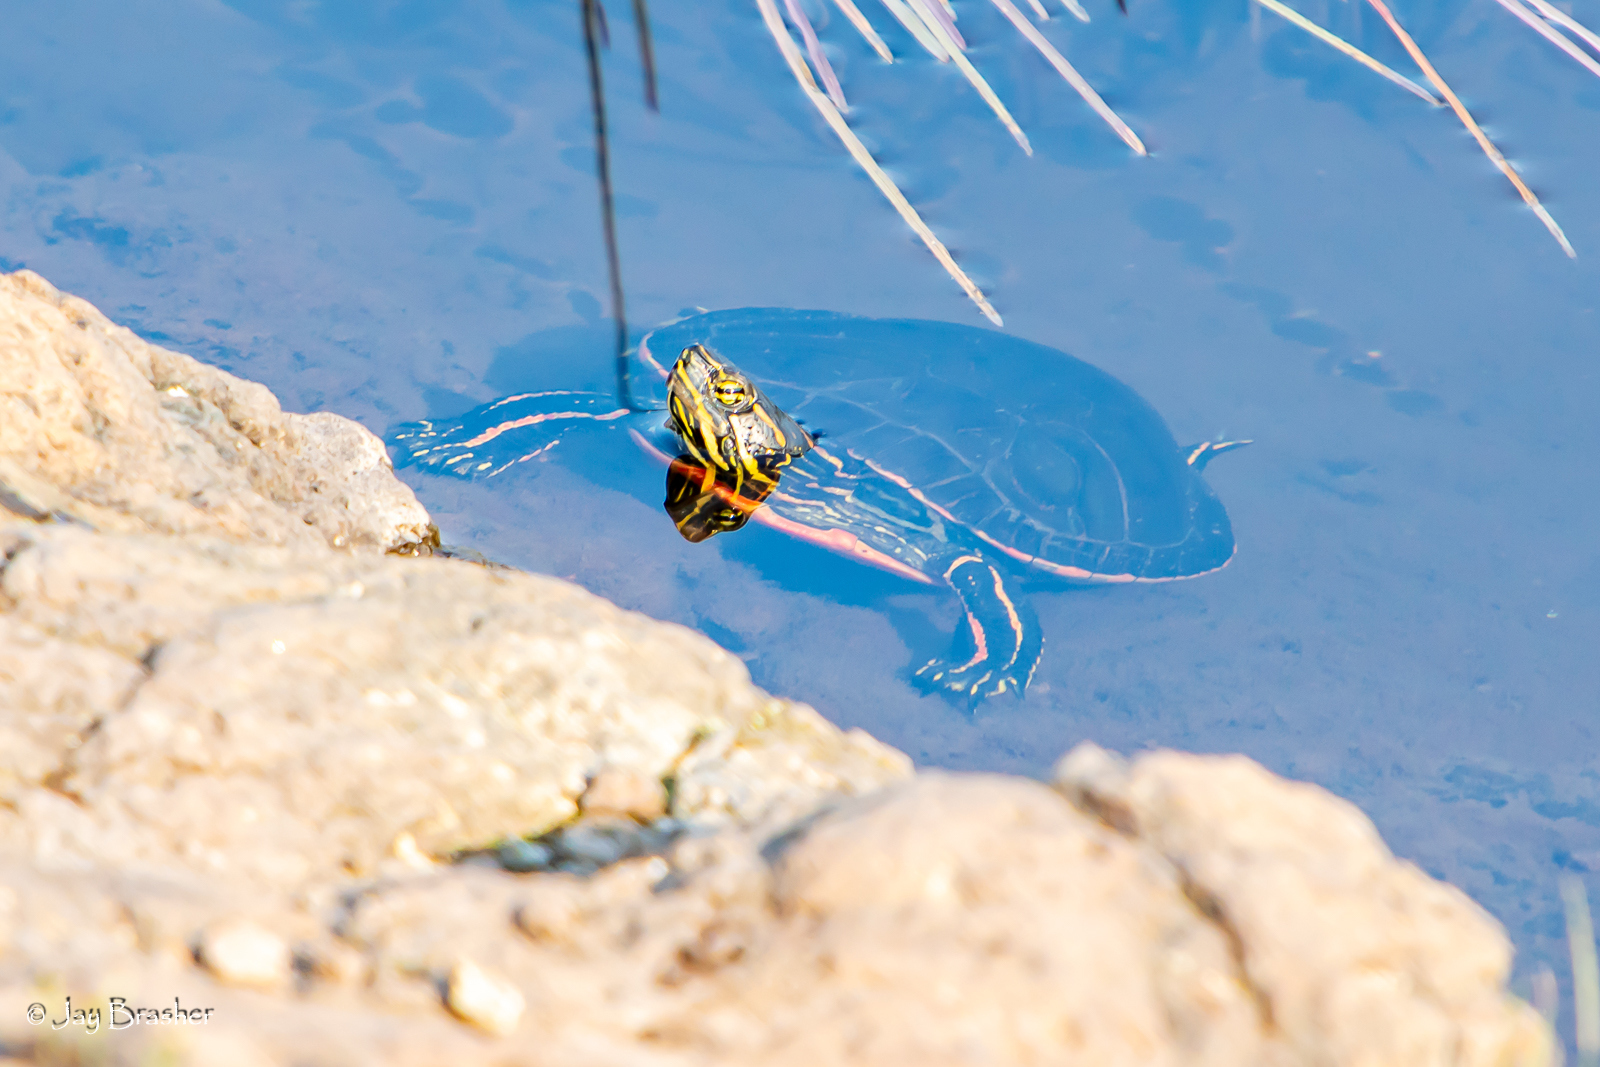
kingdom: Animalia
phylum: Chordata
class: Testudines
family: Emydidae
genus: Chrysemys
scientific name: Chrysemys picta
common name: Painted turtle
